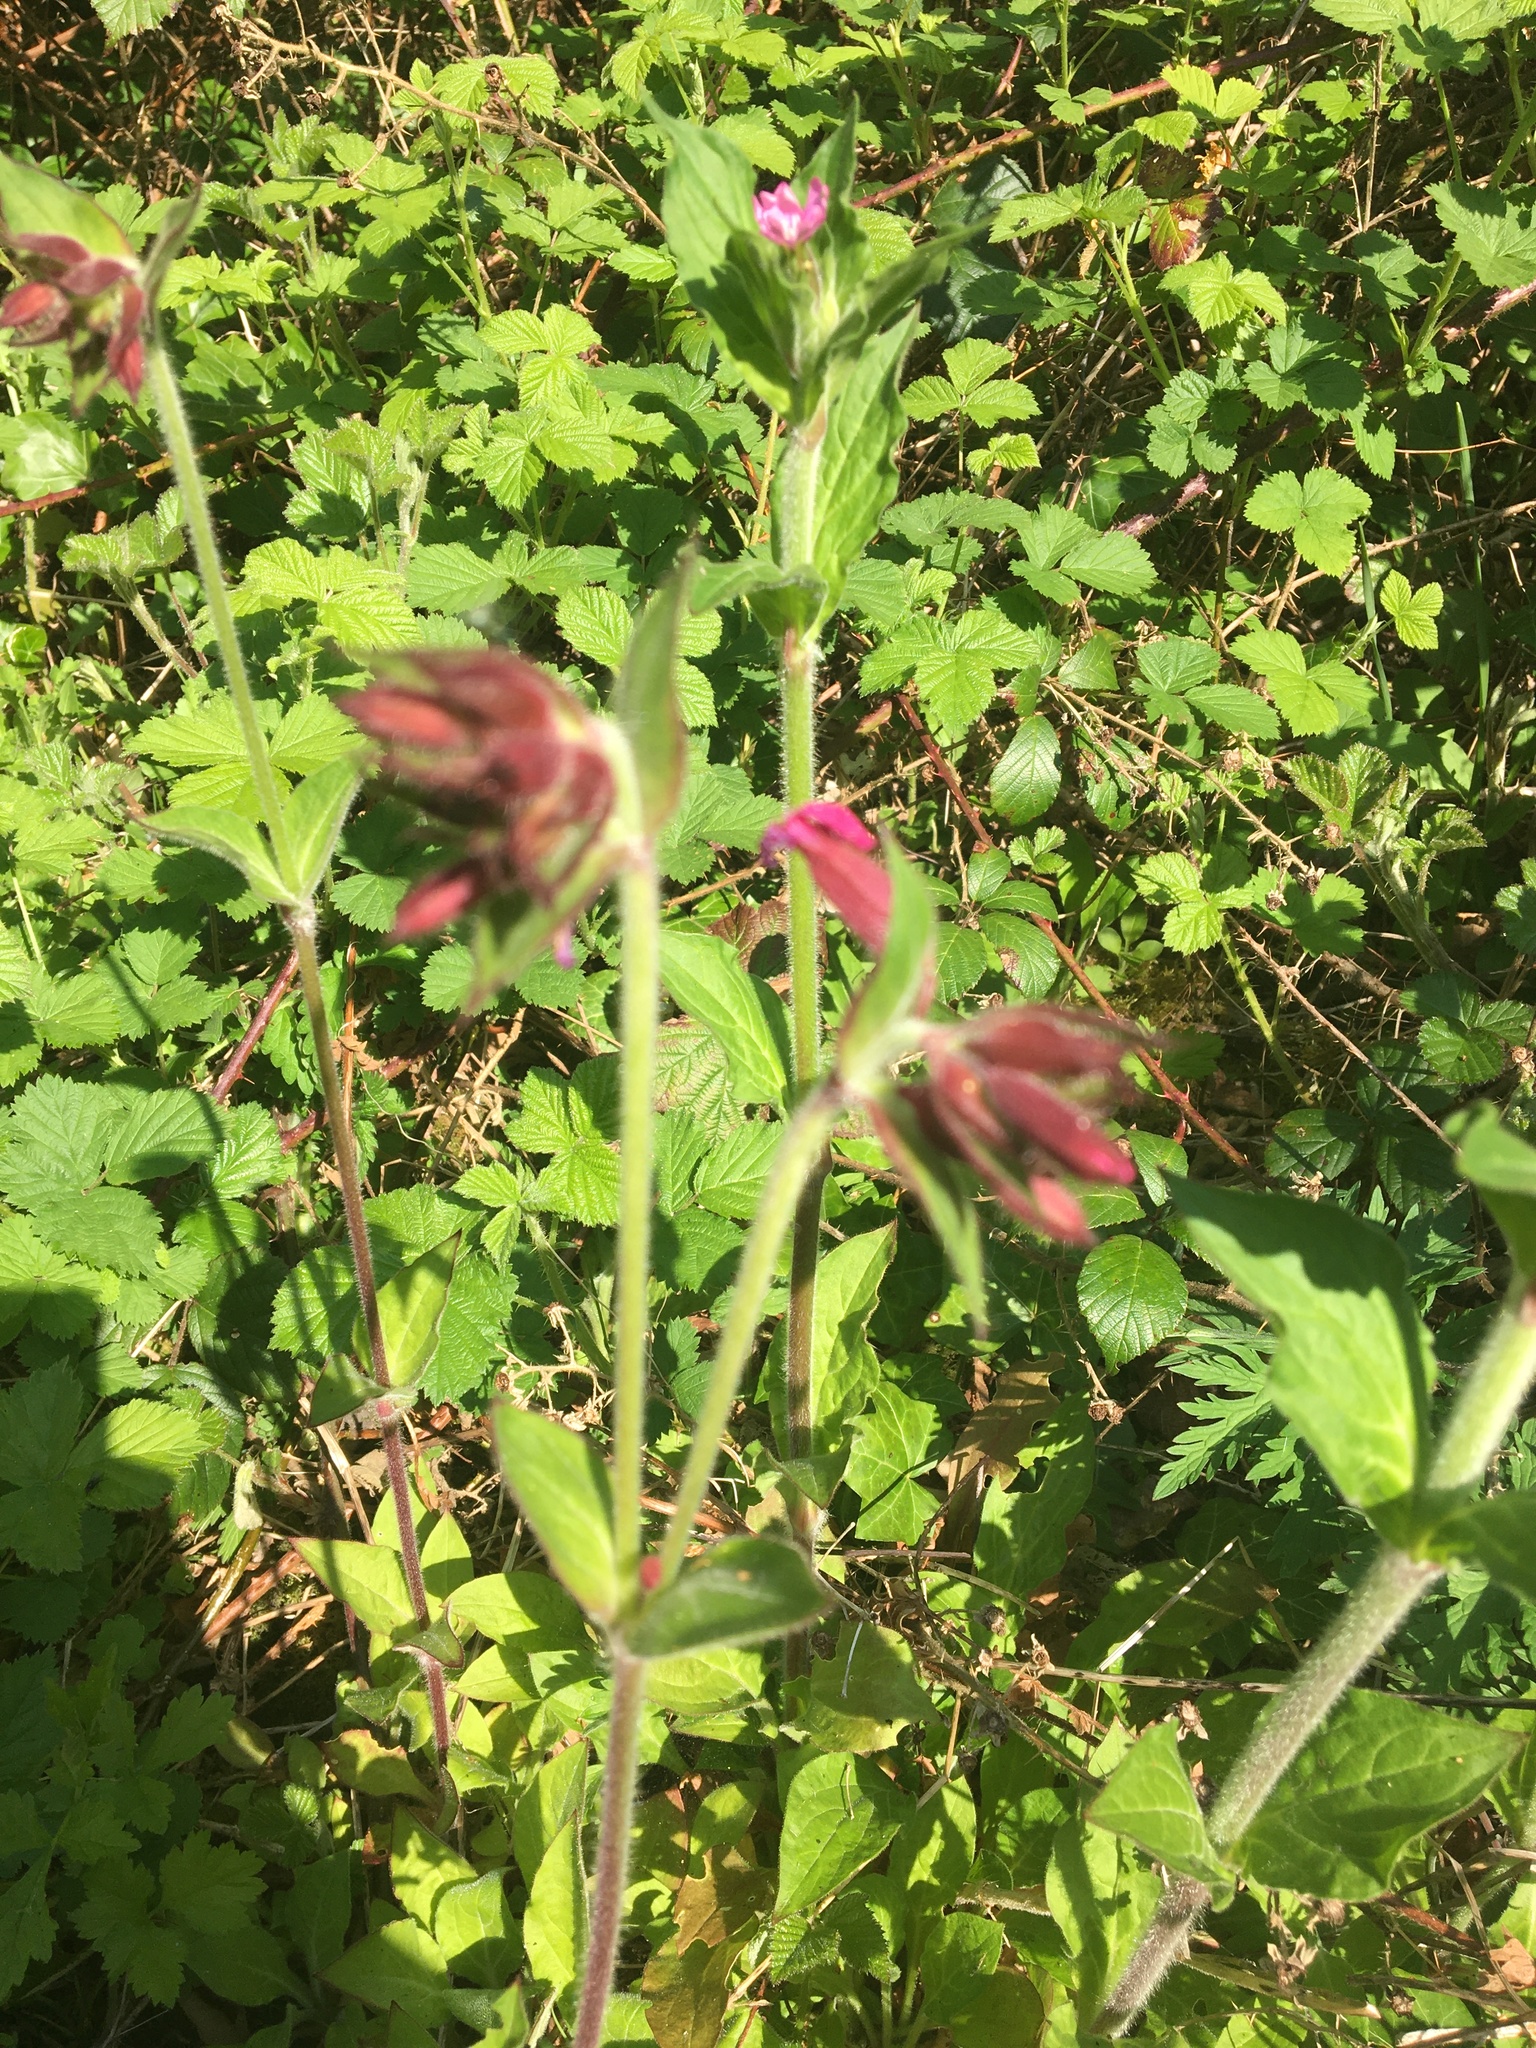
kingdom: Plantae
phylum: Tracheophyta
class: Magnoliopsida
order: Caryophyllales
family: Caryophyllaceae
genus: Silene
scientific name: Silene dioica
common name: Red campion
